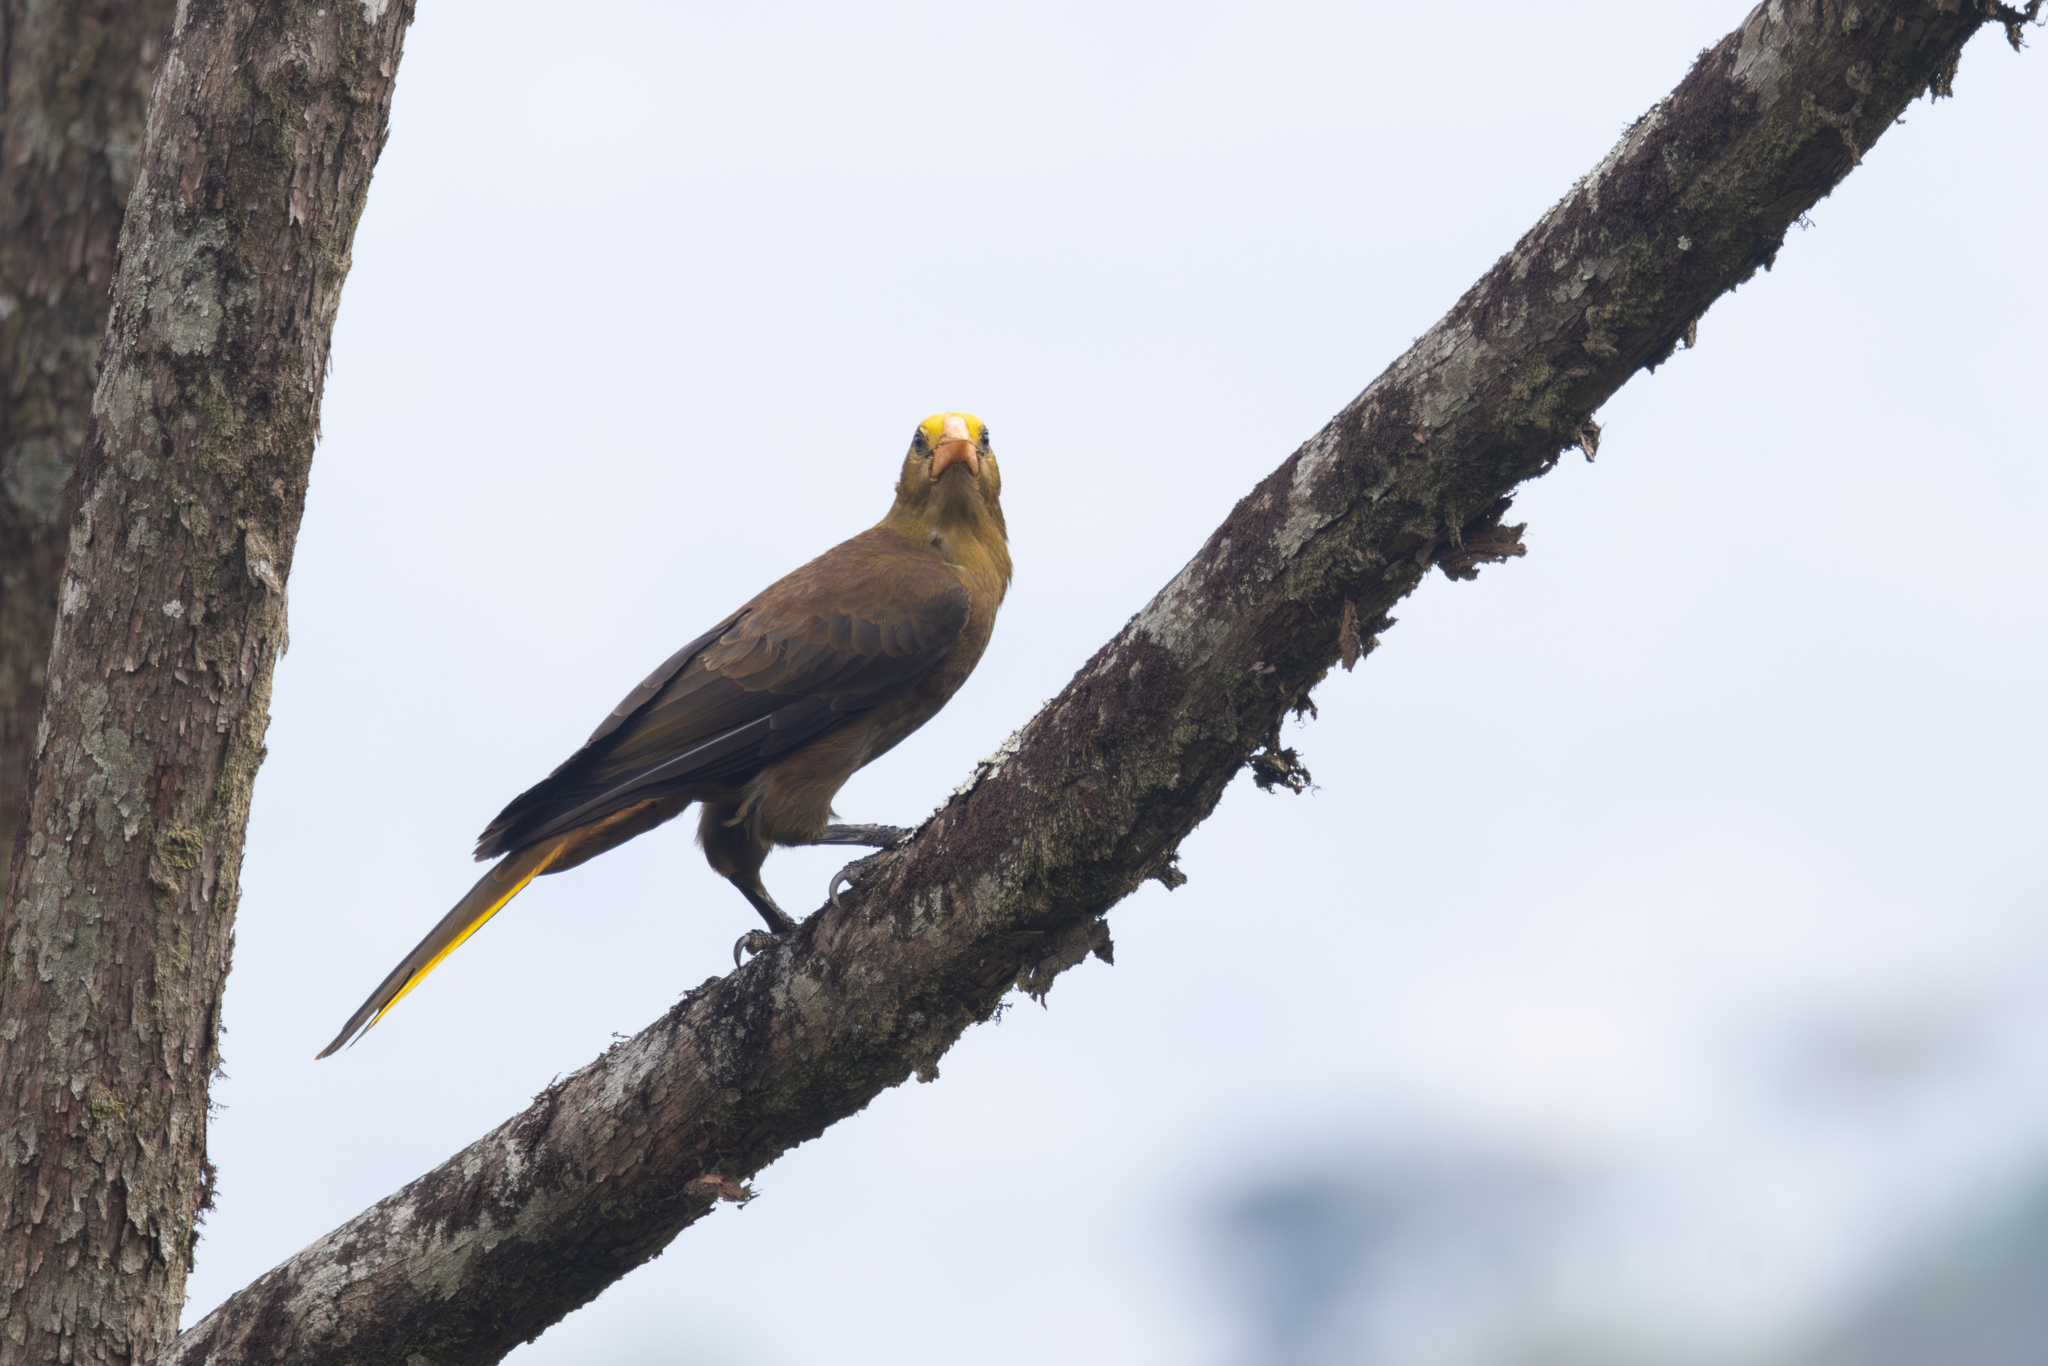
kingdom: Animalia
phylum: Chordata
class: Aves
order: Passeriformes
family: Icteridae
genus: Psarocolius
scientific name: Psarocolius angustifrons
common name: Russet-backed oropendola
